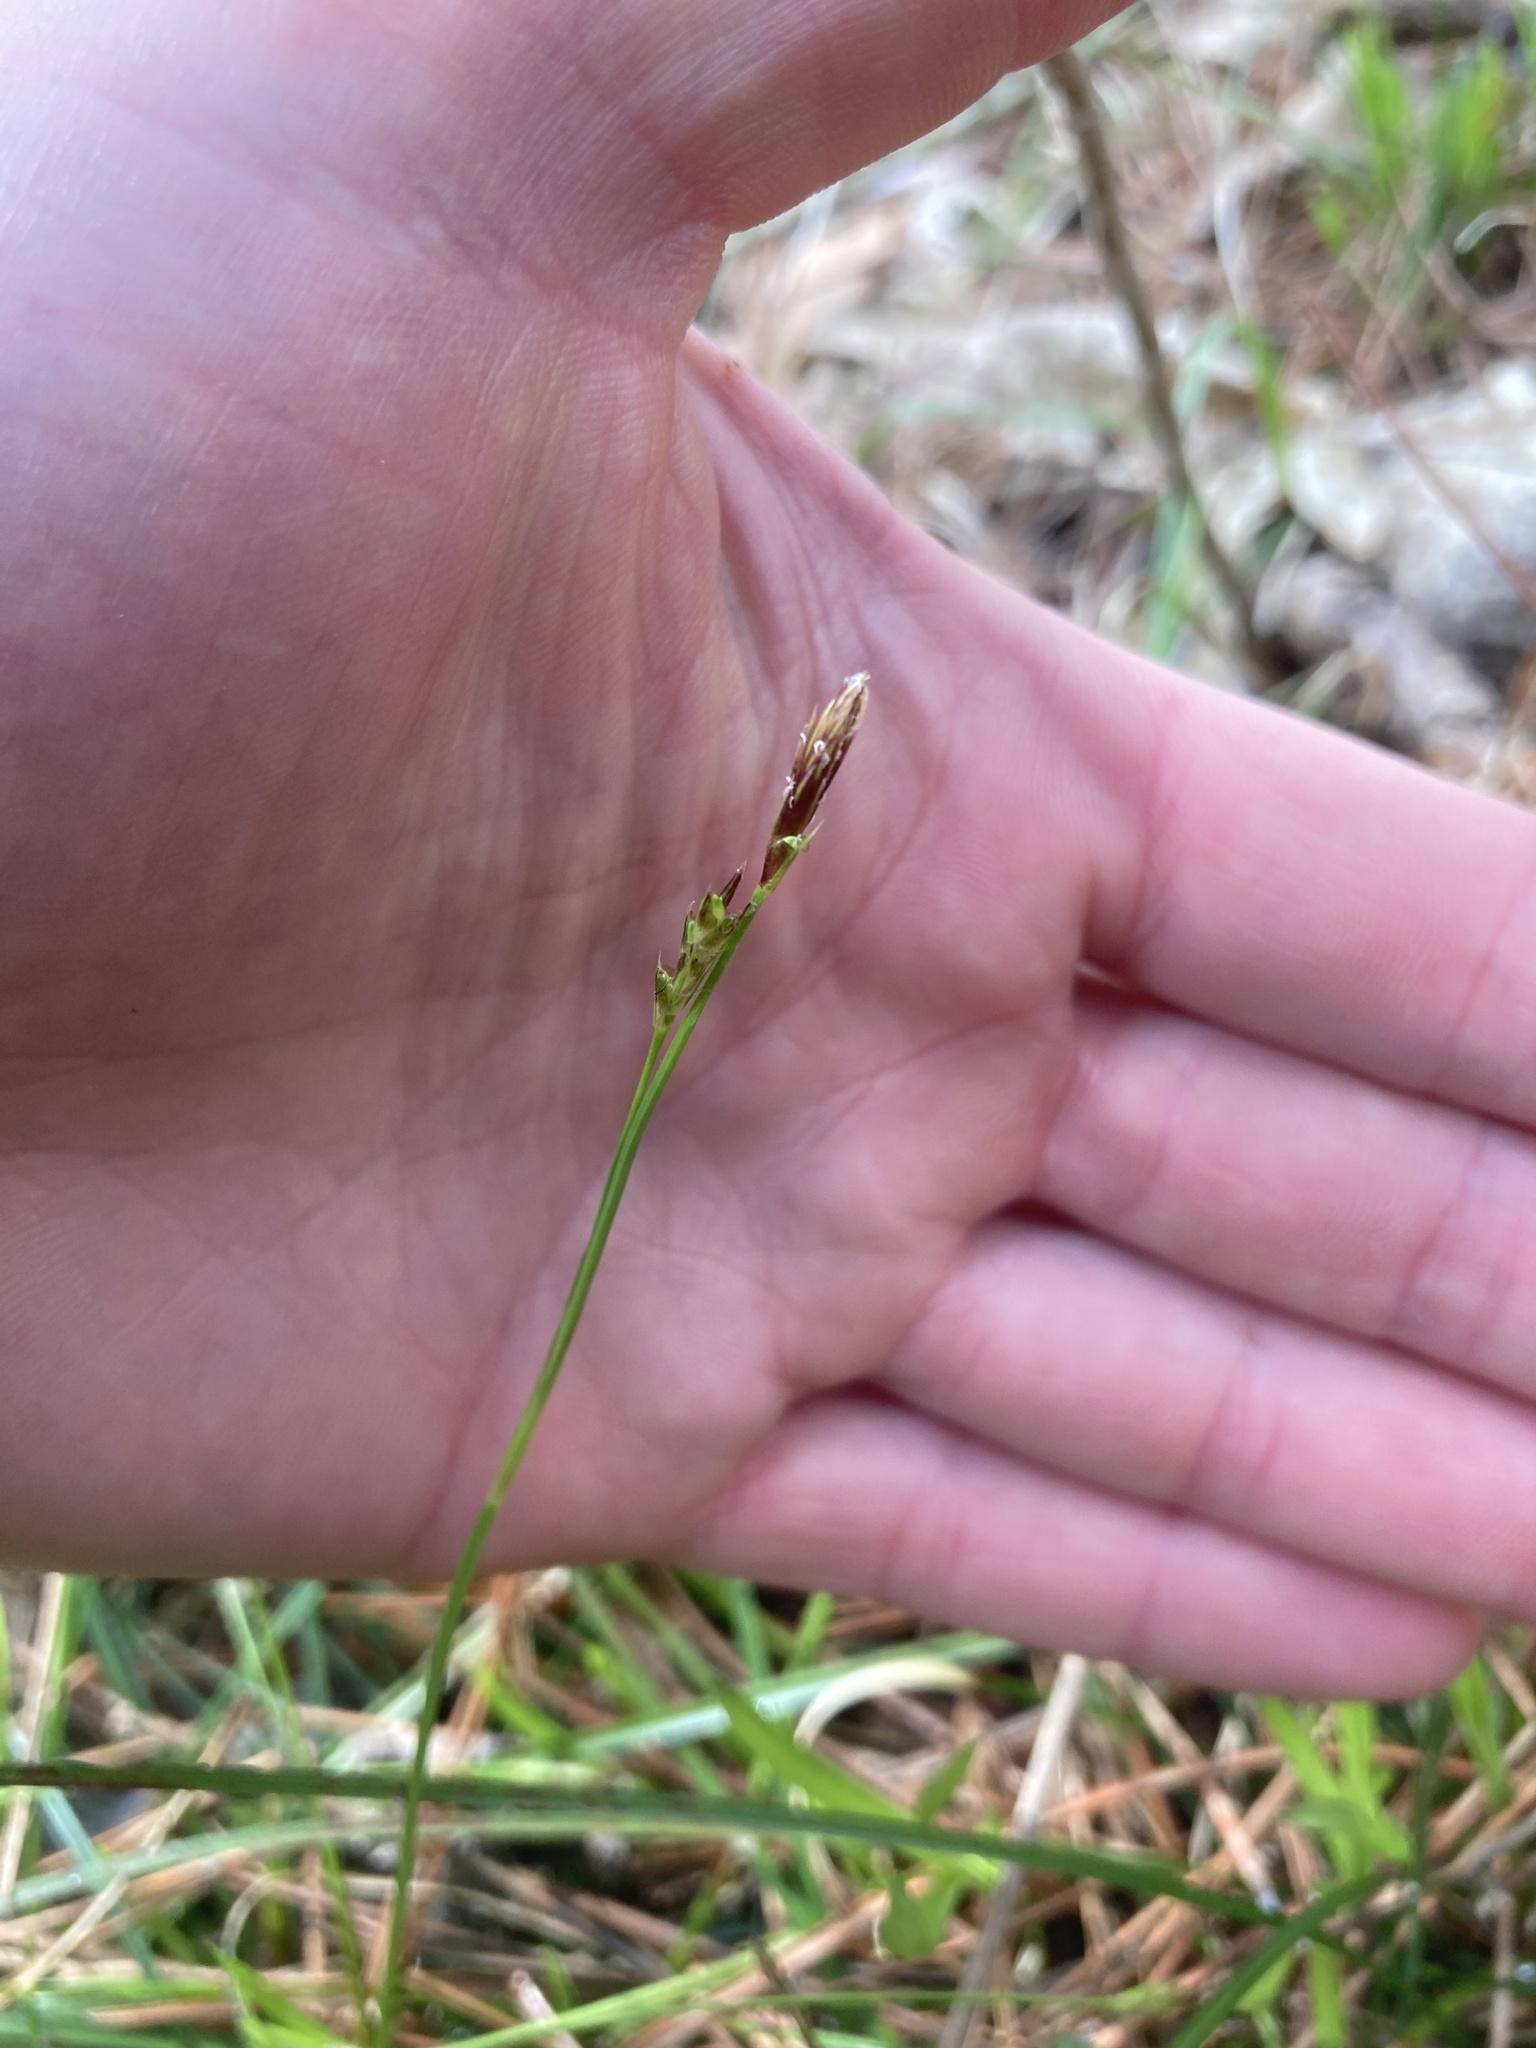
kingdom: Plantae
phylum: Tracheophyta
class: Liliopsida
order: Poales
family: Cyperaceae
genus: Carex
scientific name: Carex pedunculata
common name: Pedunculate sedge
